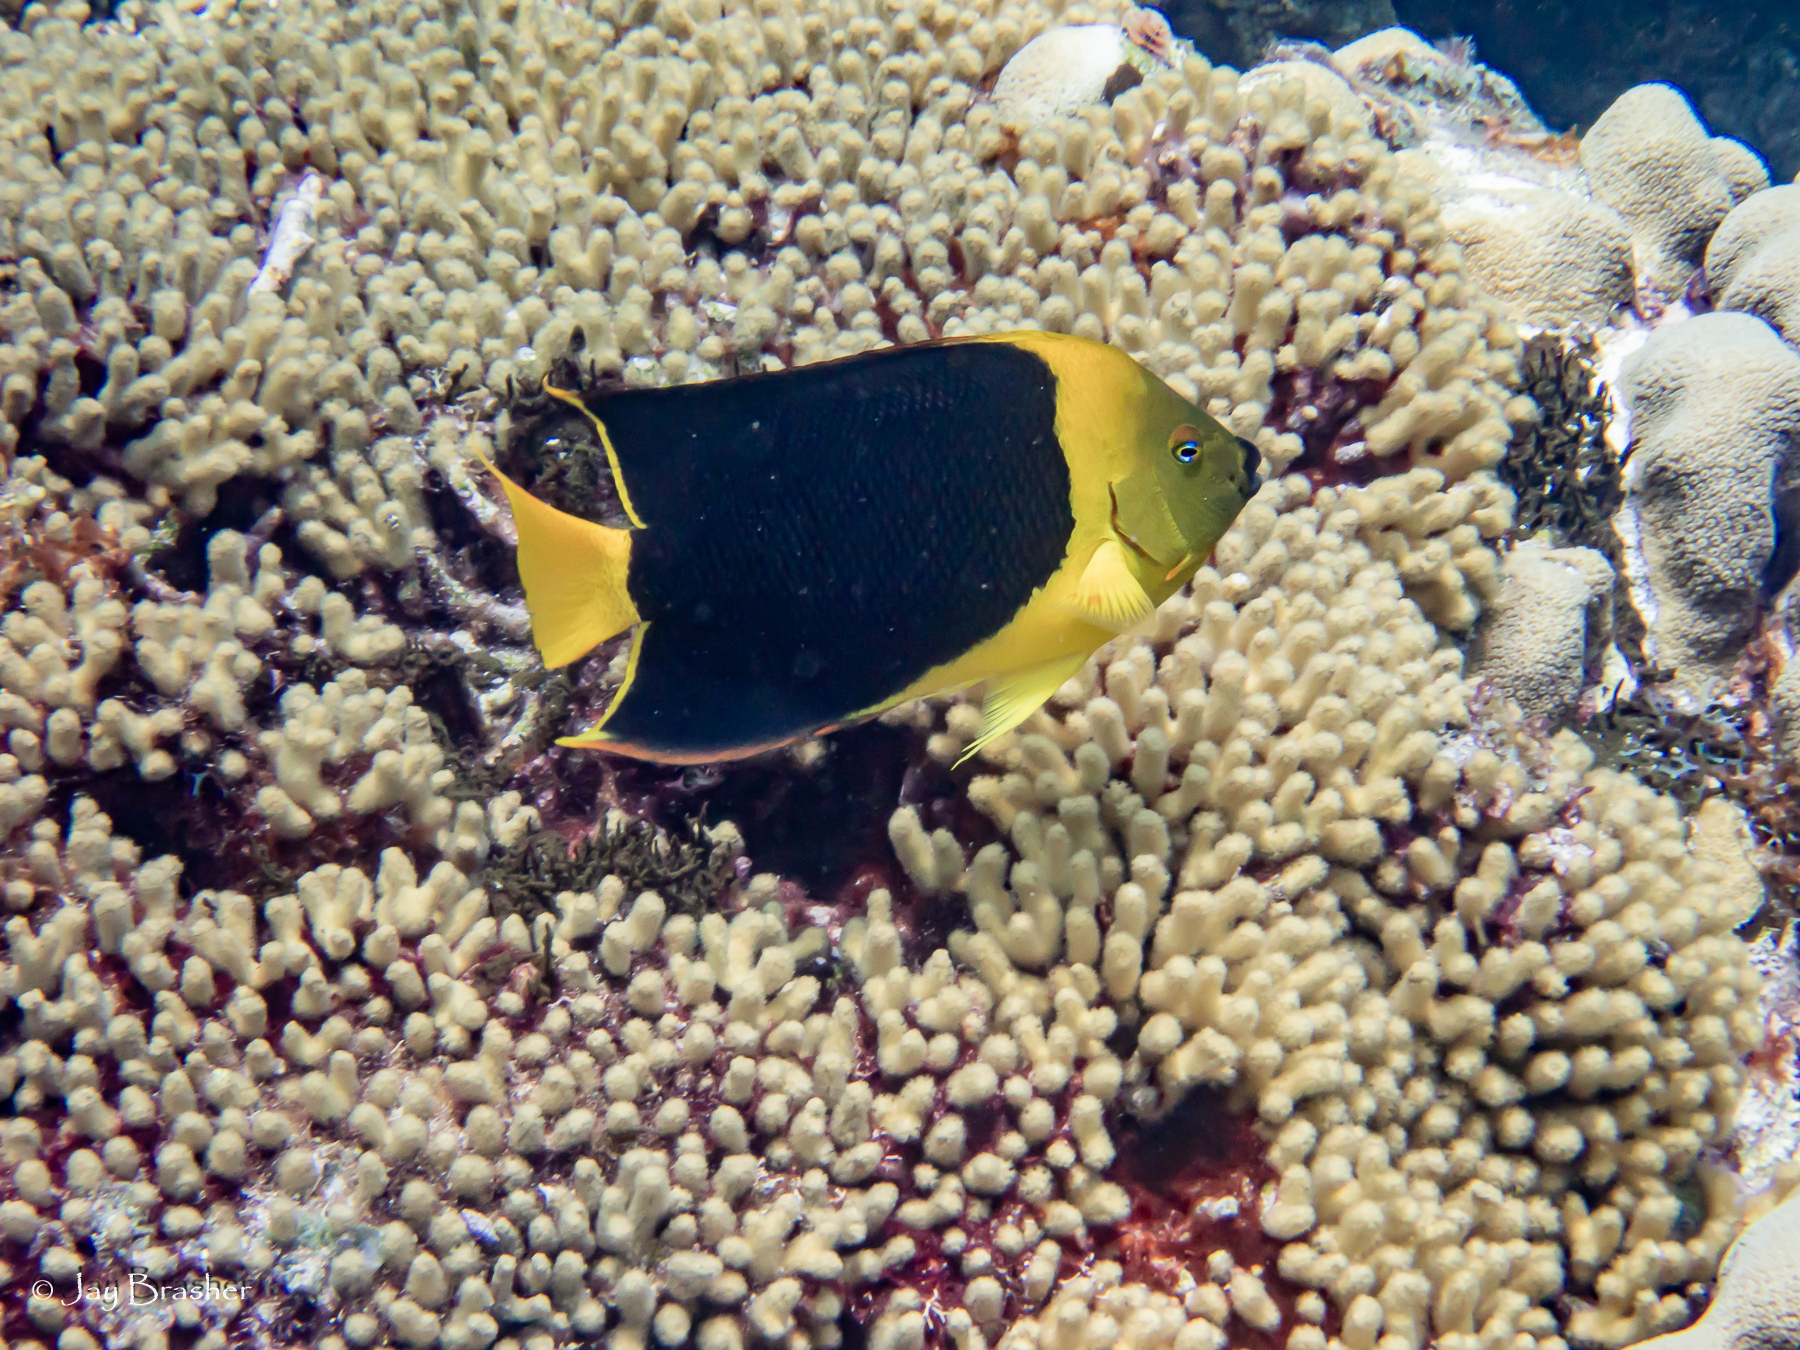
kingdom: Animalia
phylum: Chordata
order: Perciformes
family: Pomacanthidae
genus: Holacanthus
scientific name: Holacanthus tricolor
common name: Rock beauty
